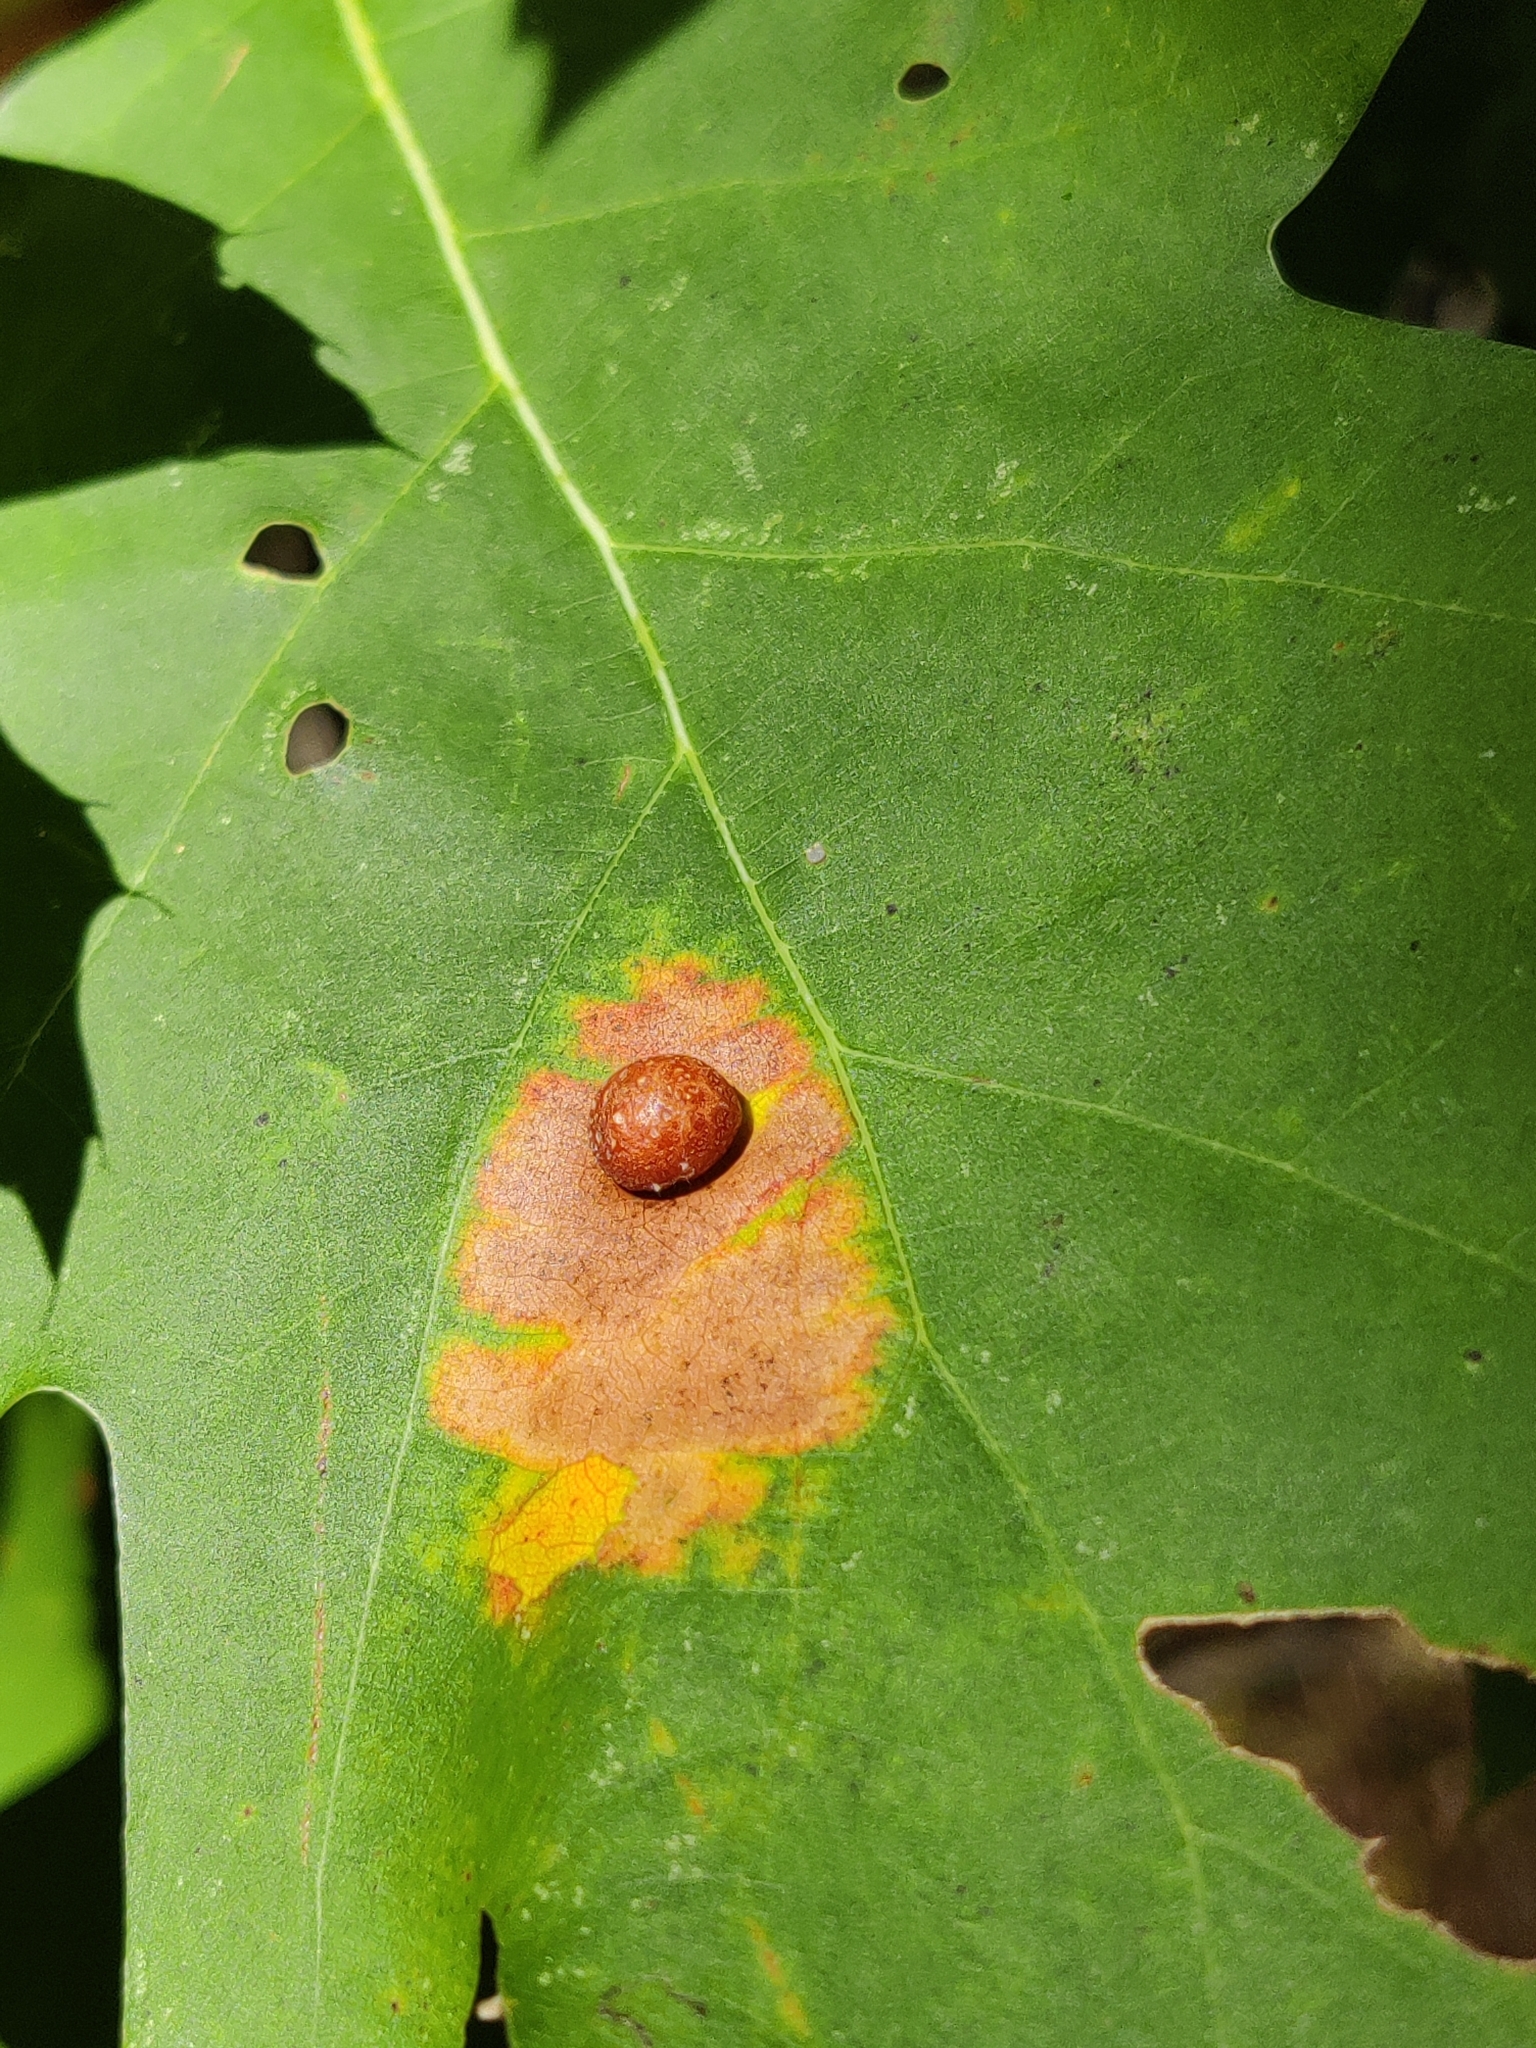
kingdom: Animalia
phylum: Arthropoda
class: Insecta
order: Diptera
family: Cecidomyiidae
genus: Polystepha
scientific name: Polystepha pilulae
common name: Oak leaf gall midge
